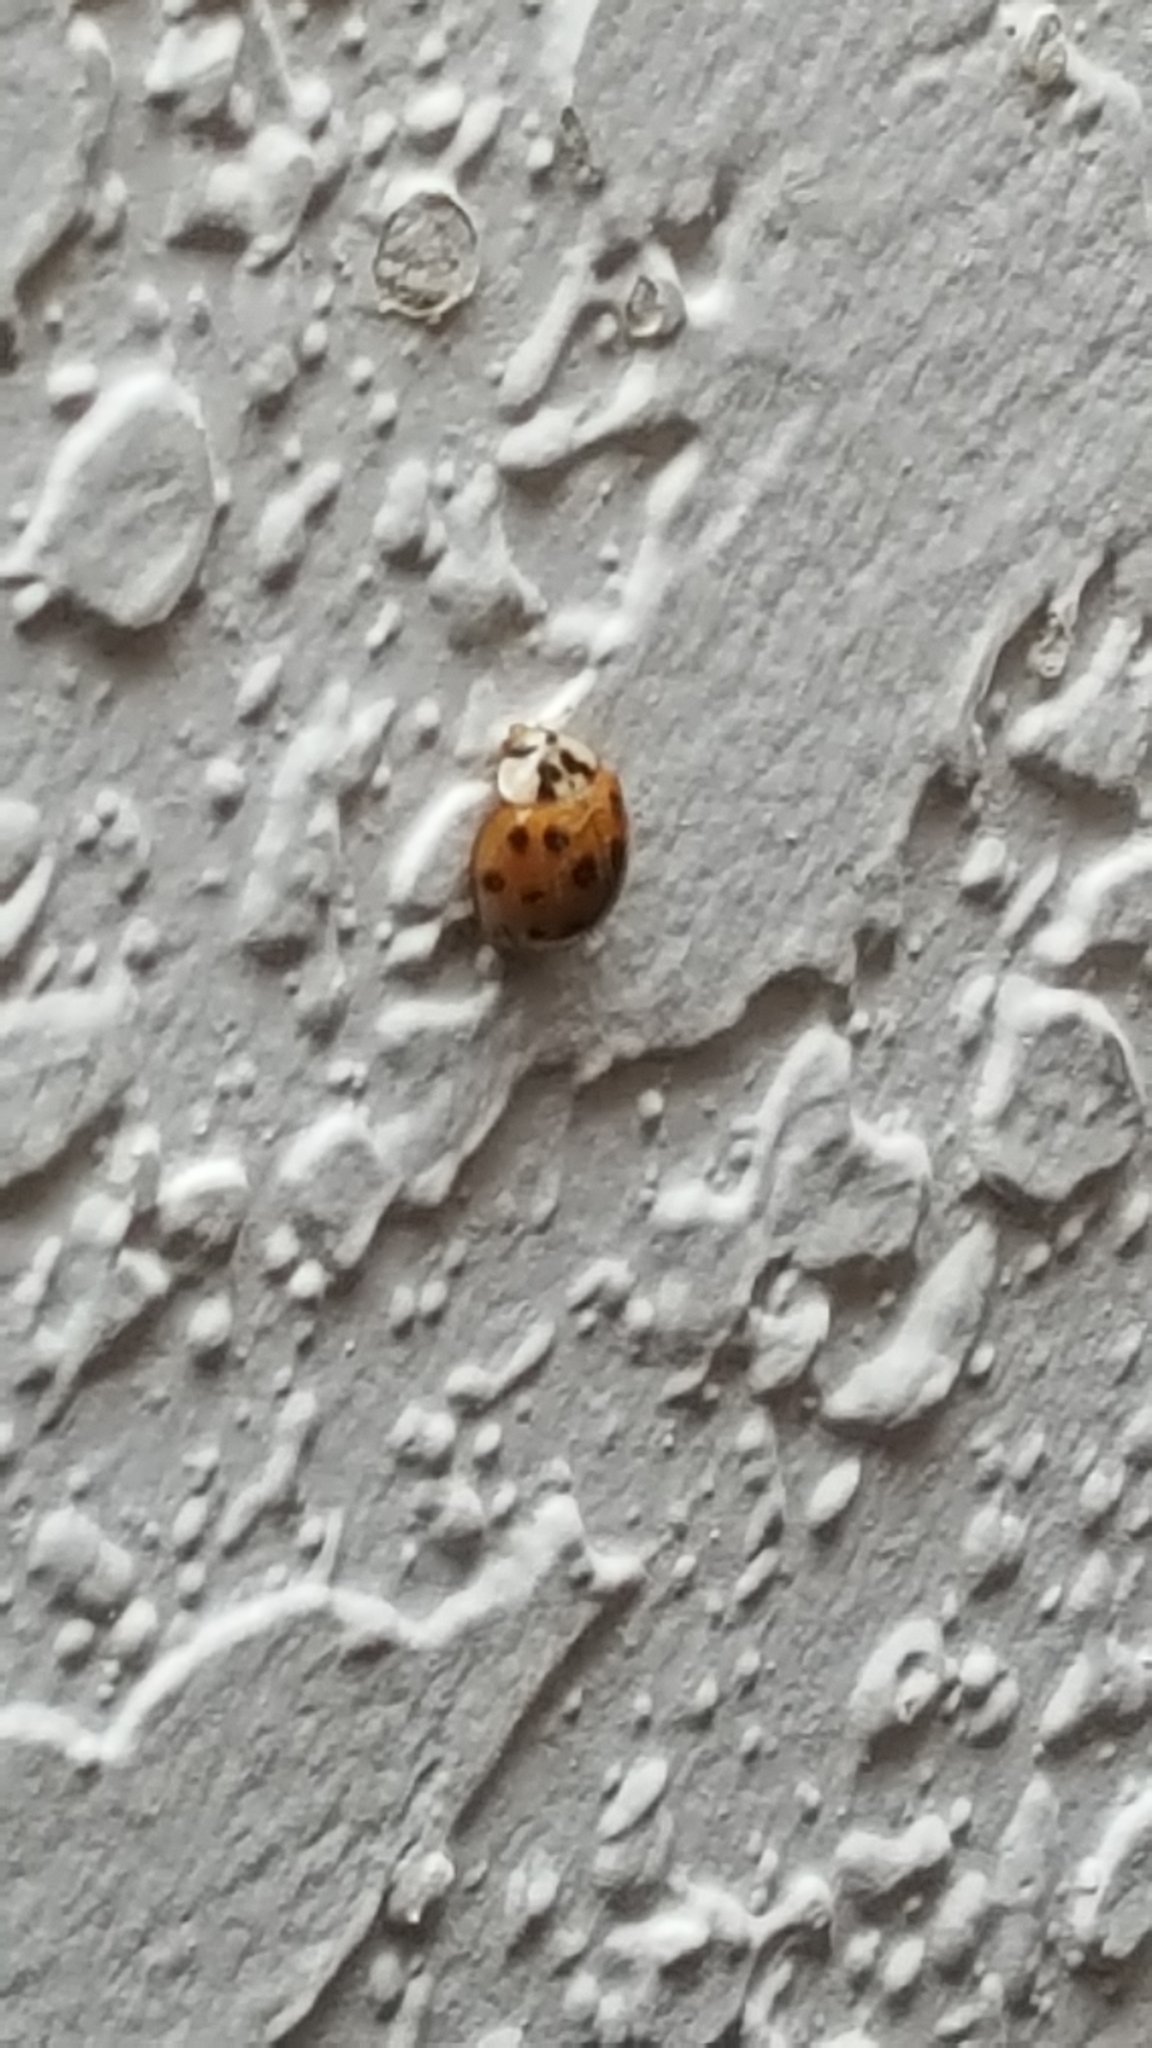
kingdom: Animalia
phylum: Arthropoda
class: Insecta
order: Coleoptera
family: Coccinellidae
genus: Harmonia
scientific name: Harmonia axyridis
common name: Harlequin ladybird
